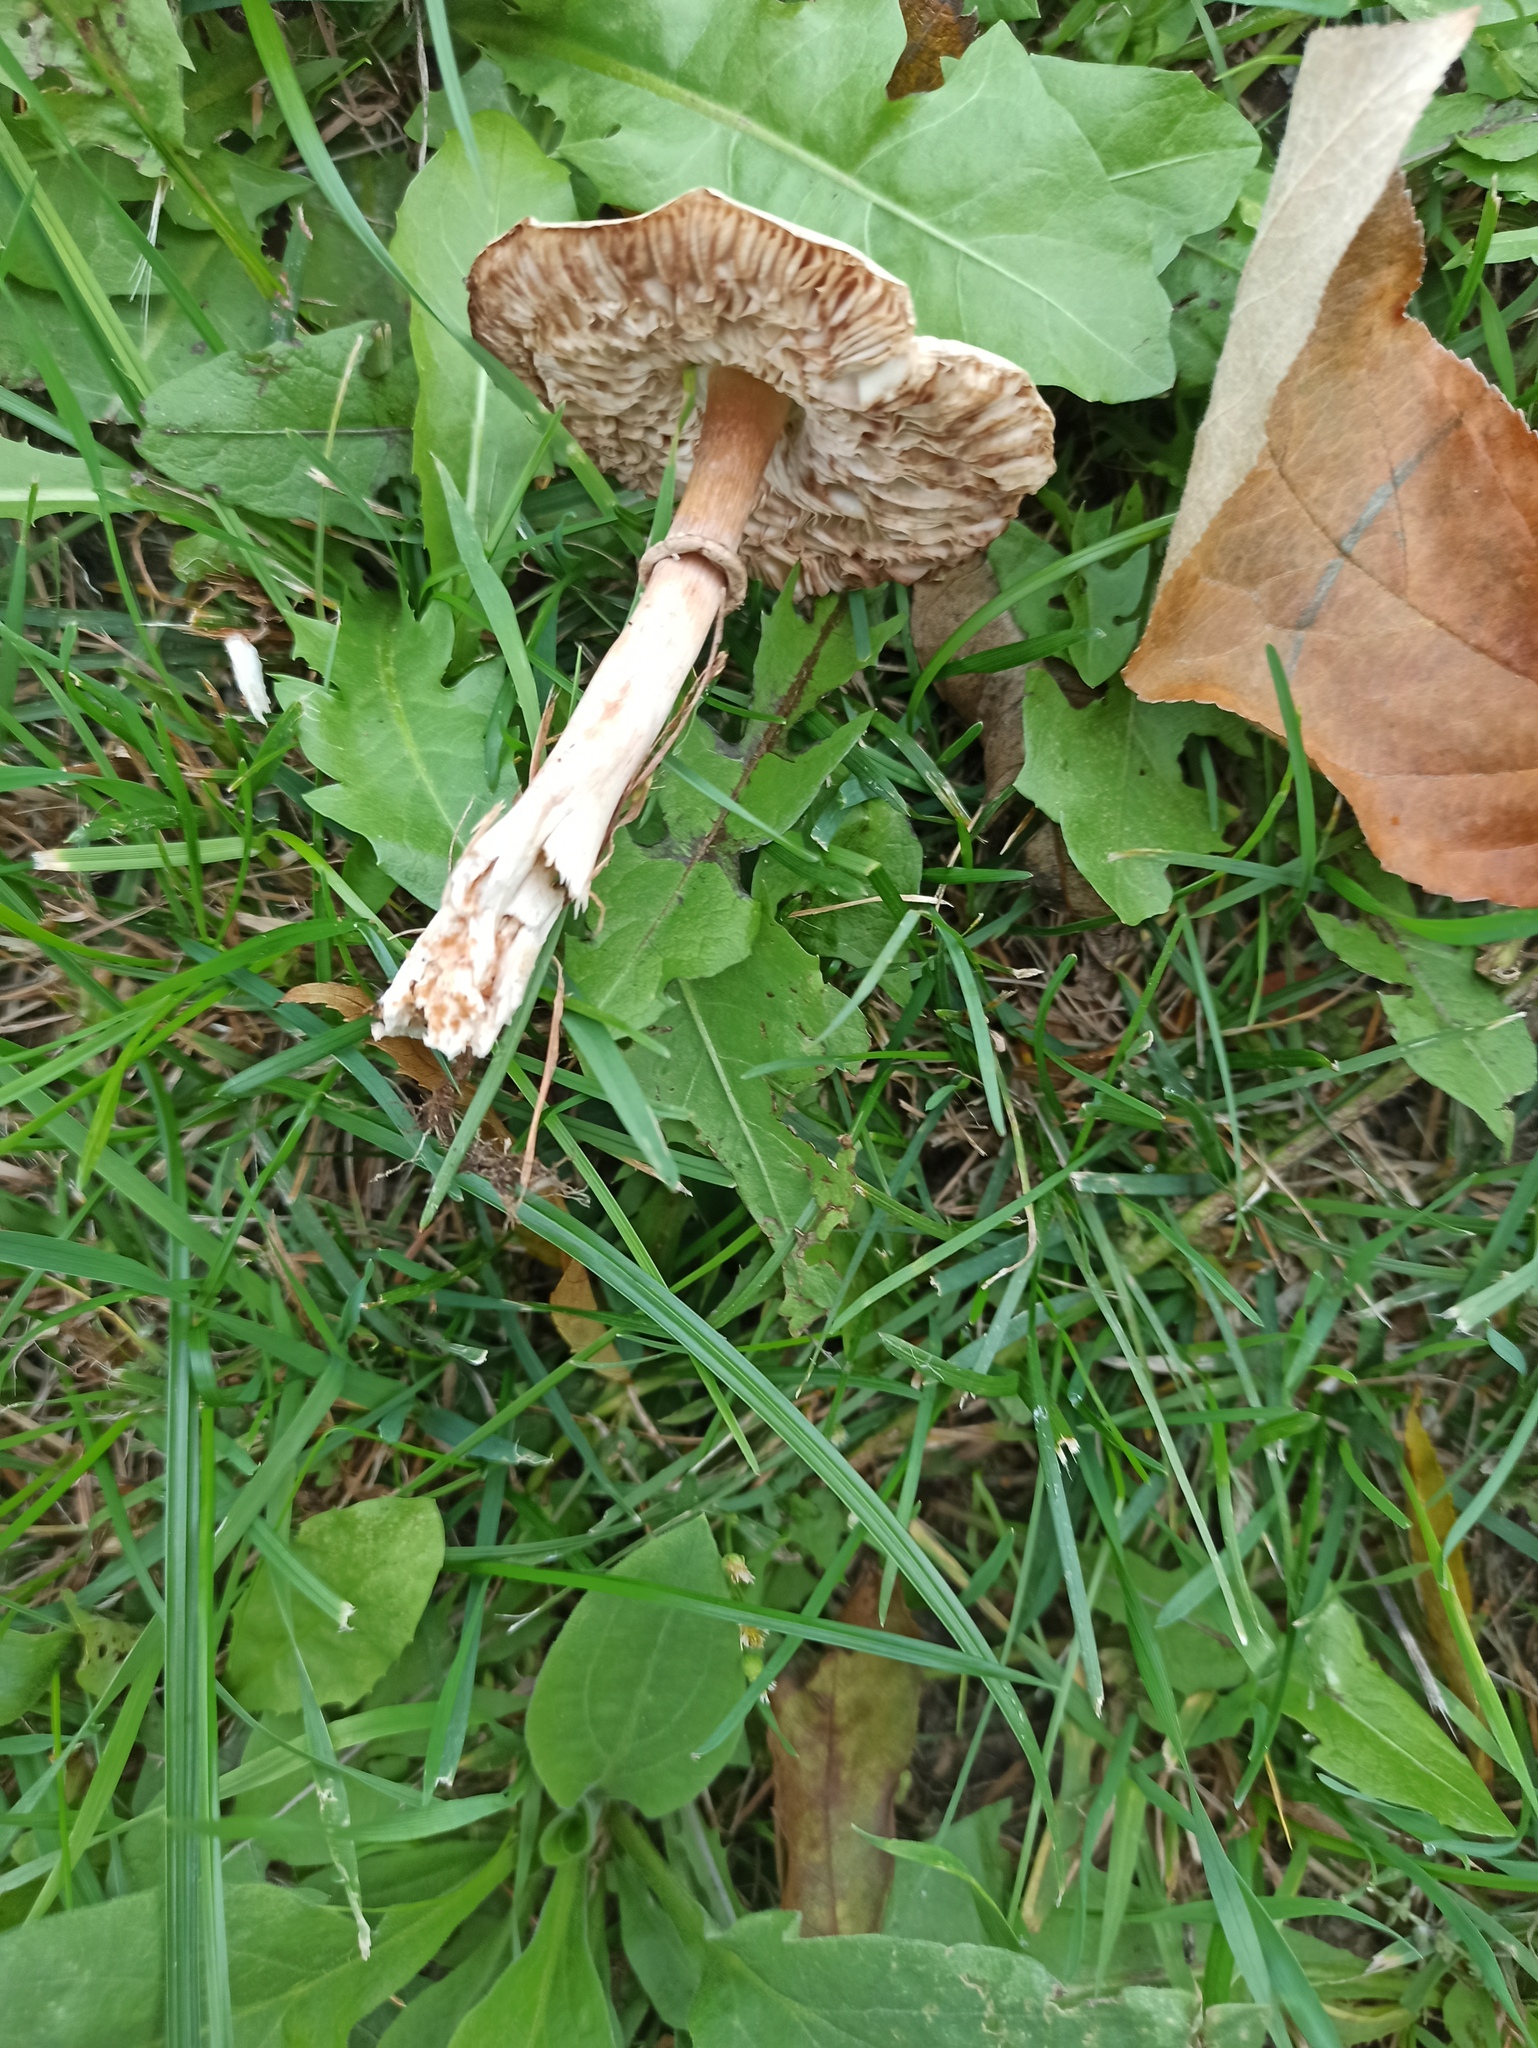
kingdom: Fungi
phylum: Basidiomycota
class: Agaricomycetes
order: Agaricales
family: Agaricaceae
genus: Leucoagaricus
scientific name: Leucoagaricus leucothites
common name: White dapperling
